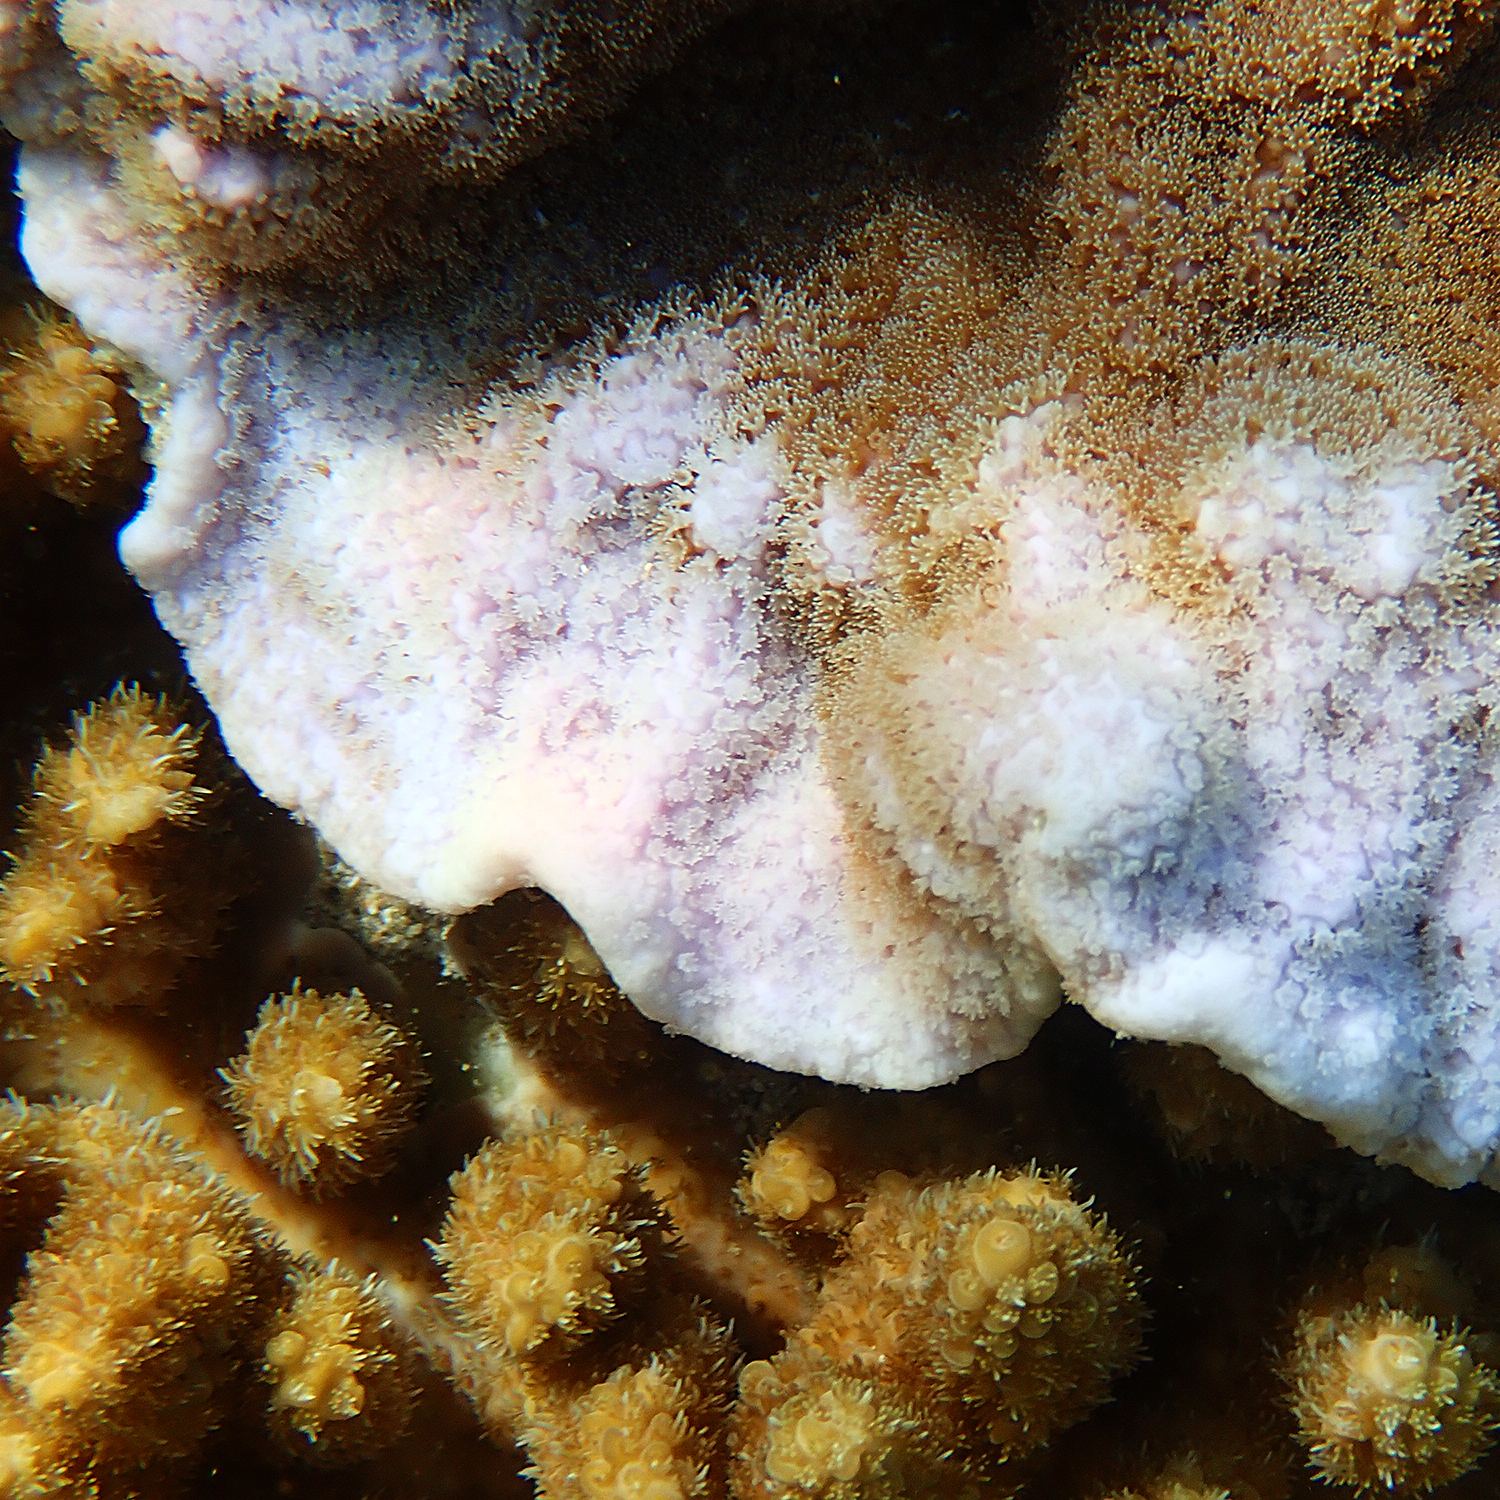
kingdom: Animalia
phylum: Cnidaria
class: Anthozoa
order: Scleractinia
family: Acroporidae
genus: Acropora
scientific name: Acropora solitaryensis
